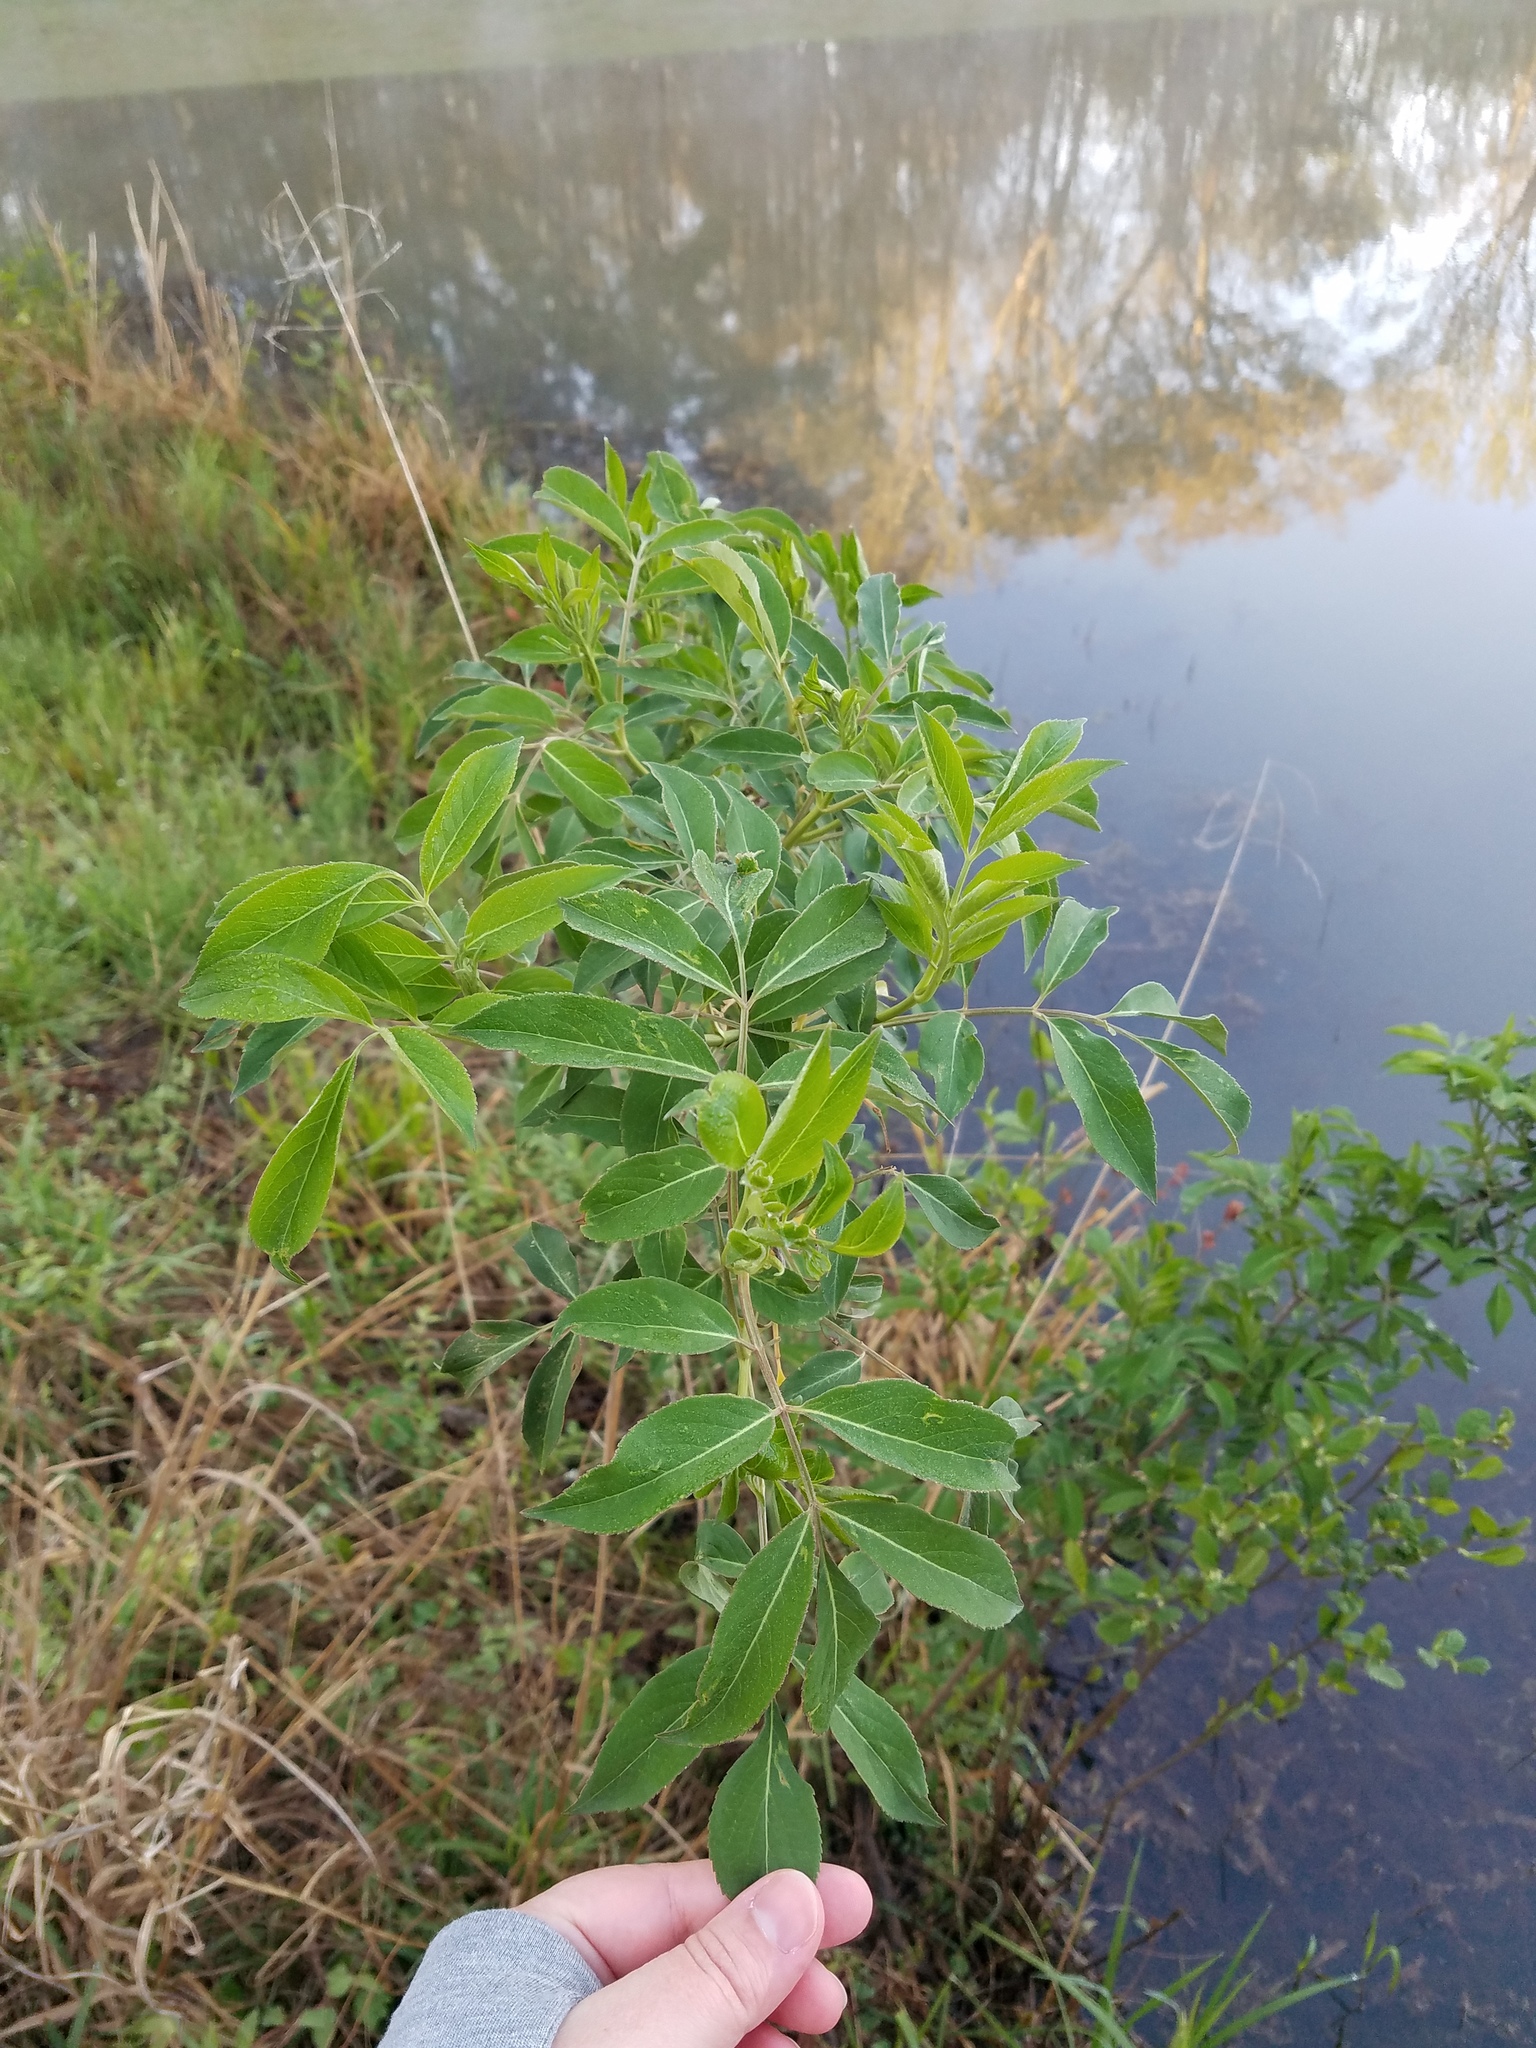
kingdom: Plantae
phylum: Tracheophyta
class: Magnoliopsida
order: Dipsacales
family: Viburnaceae
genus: Sambucus
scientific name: Sambucus canadensis
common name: American elder
